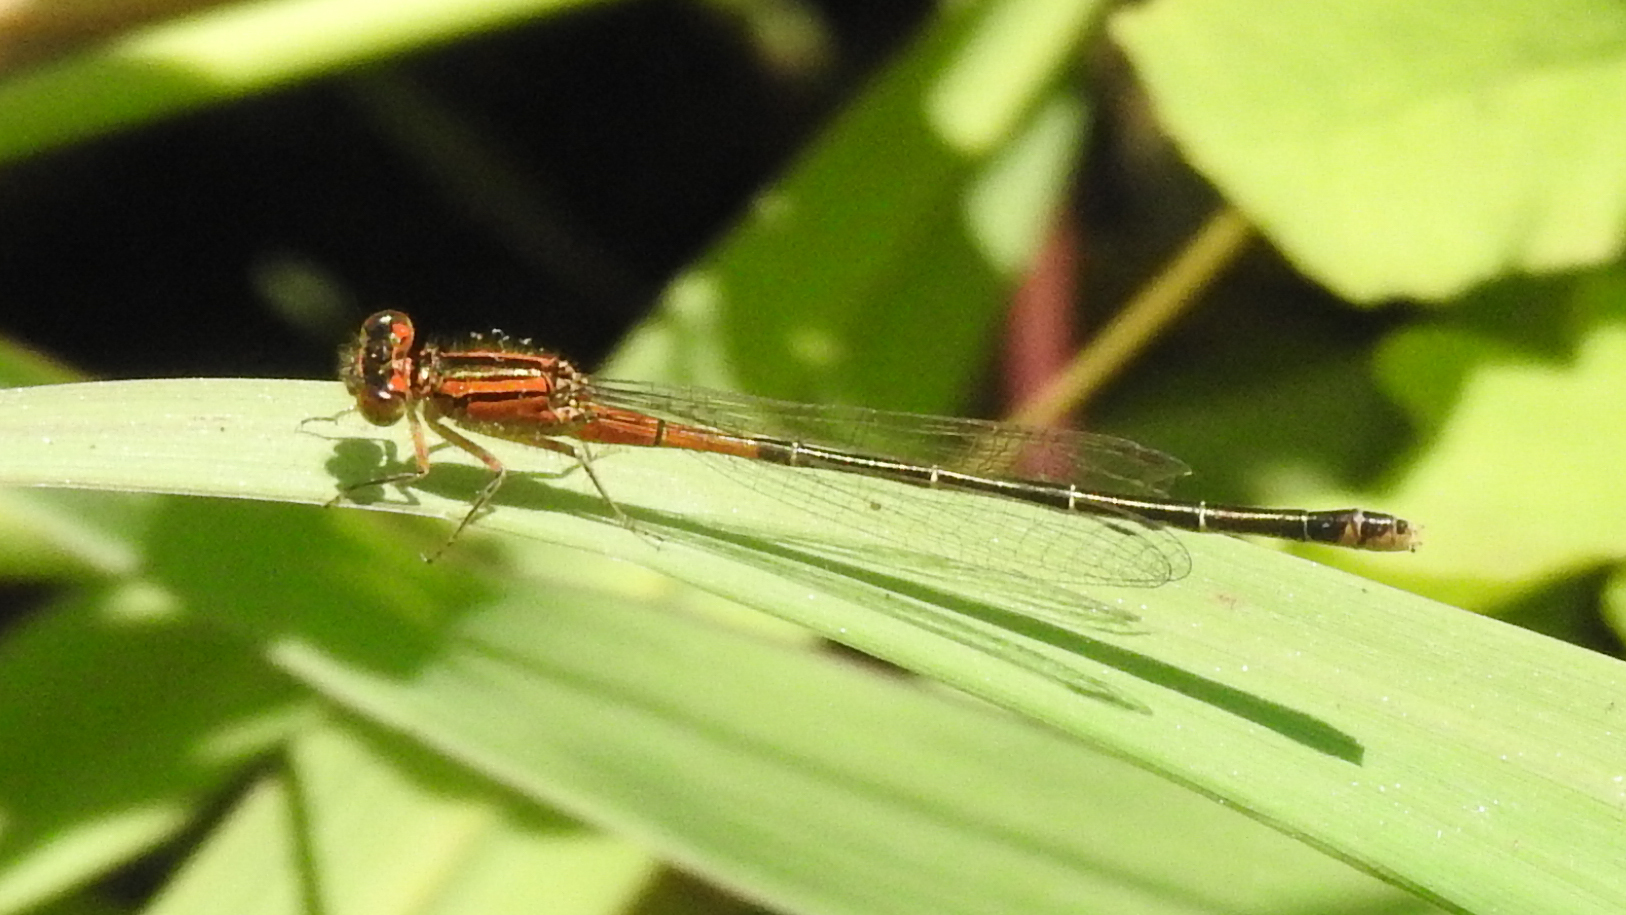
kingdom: Animalia
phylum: Arthropoda
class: Insecta
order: Odonata
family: Coenagrionidae
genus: Ischnura
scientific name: Ischnura verticalis
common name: Eastern forktail
